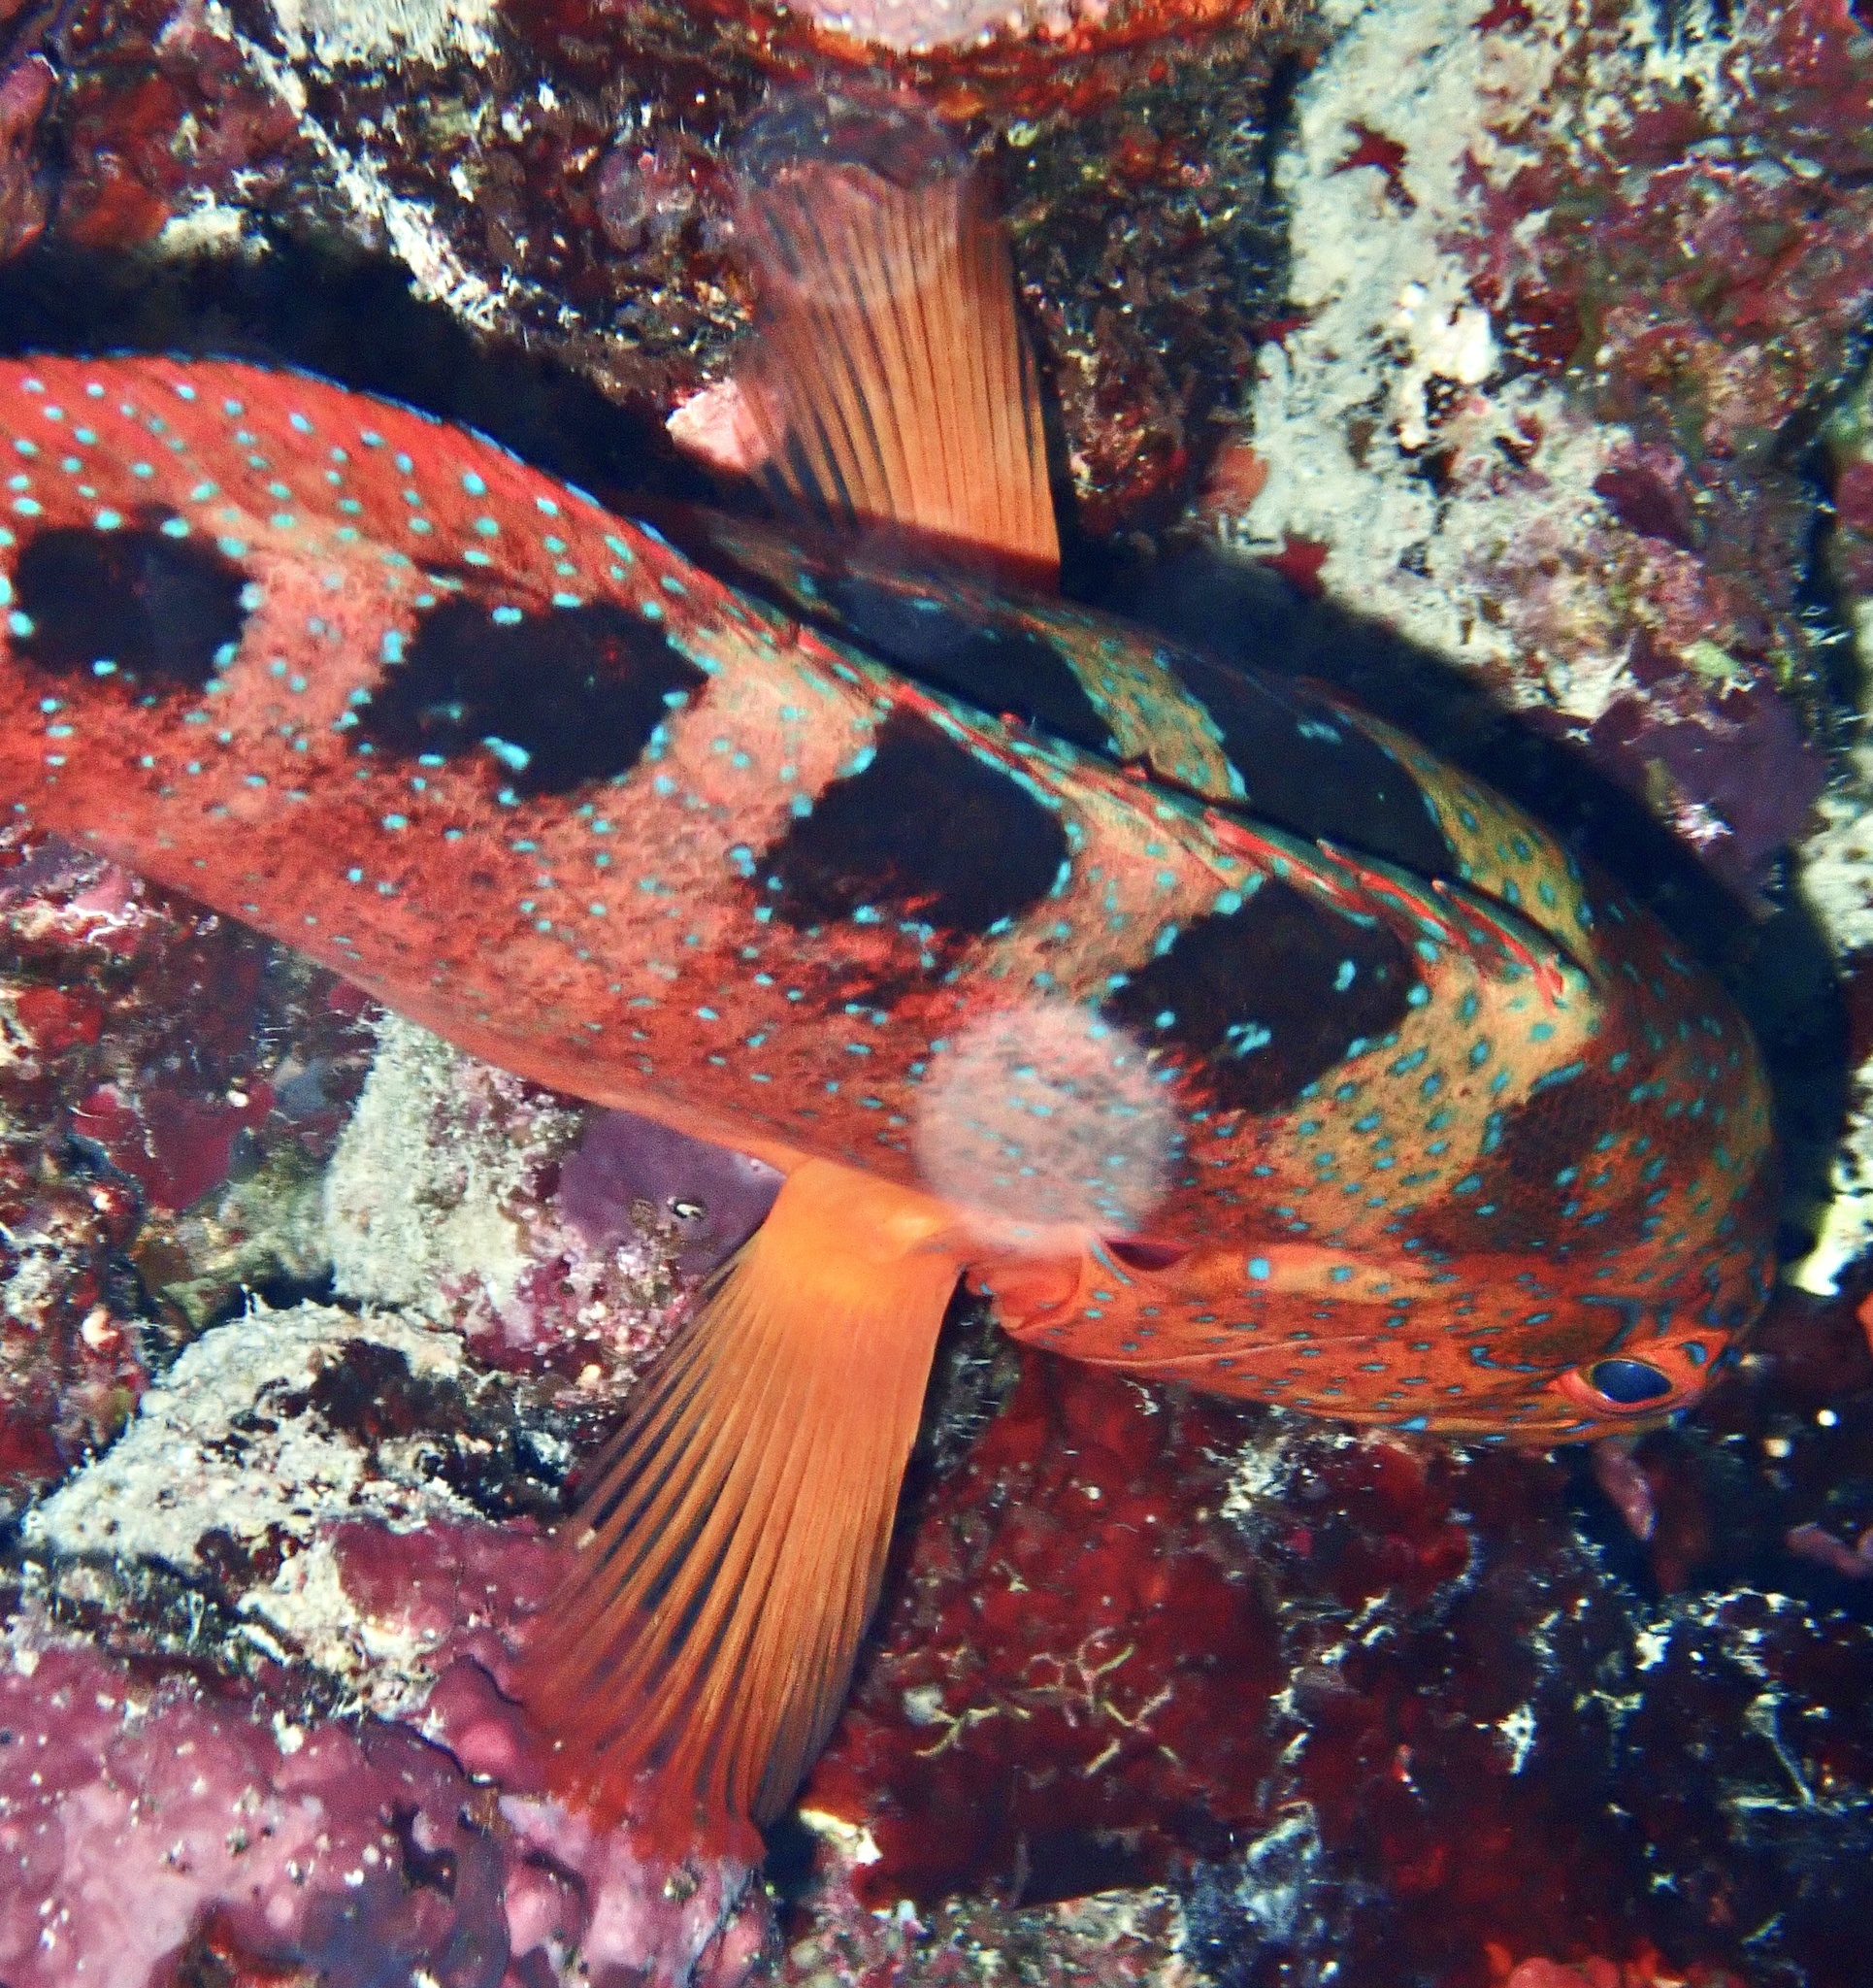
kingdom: Animalia
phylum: Chordata
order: Perciformes
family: Serranidae
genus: Cephalopholis
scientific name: Cephalopholis sexmaculata
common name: Sixblotch hind
